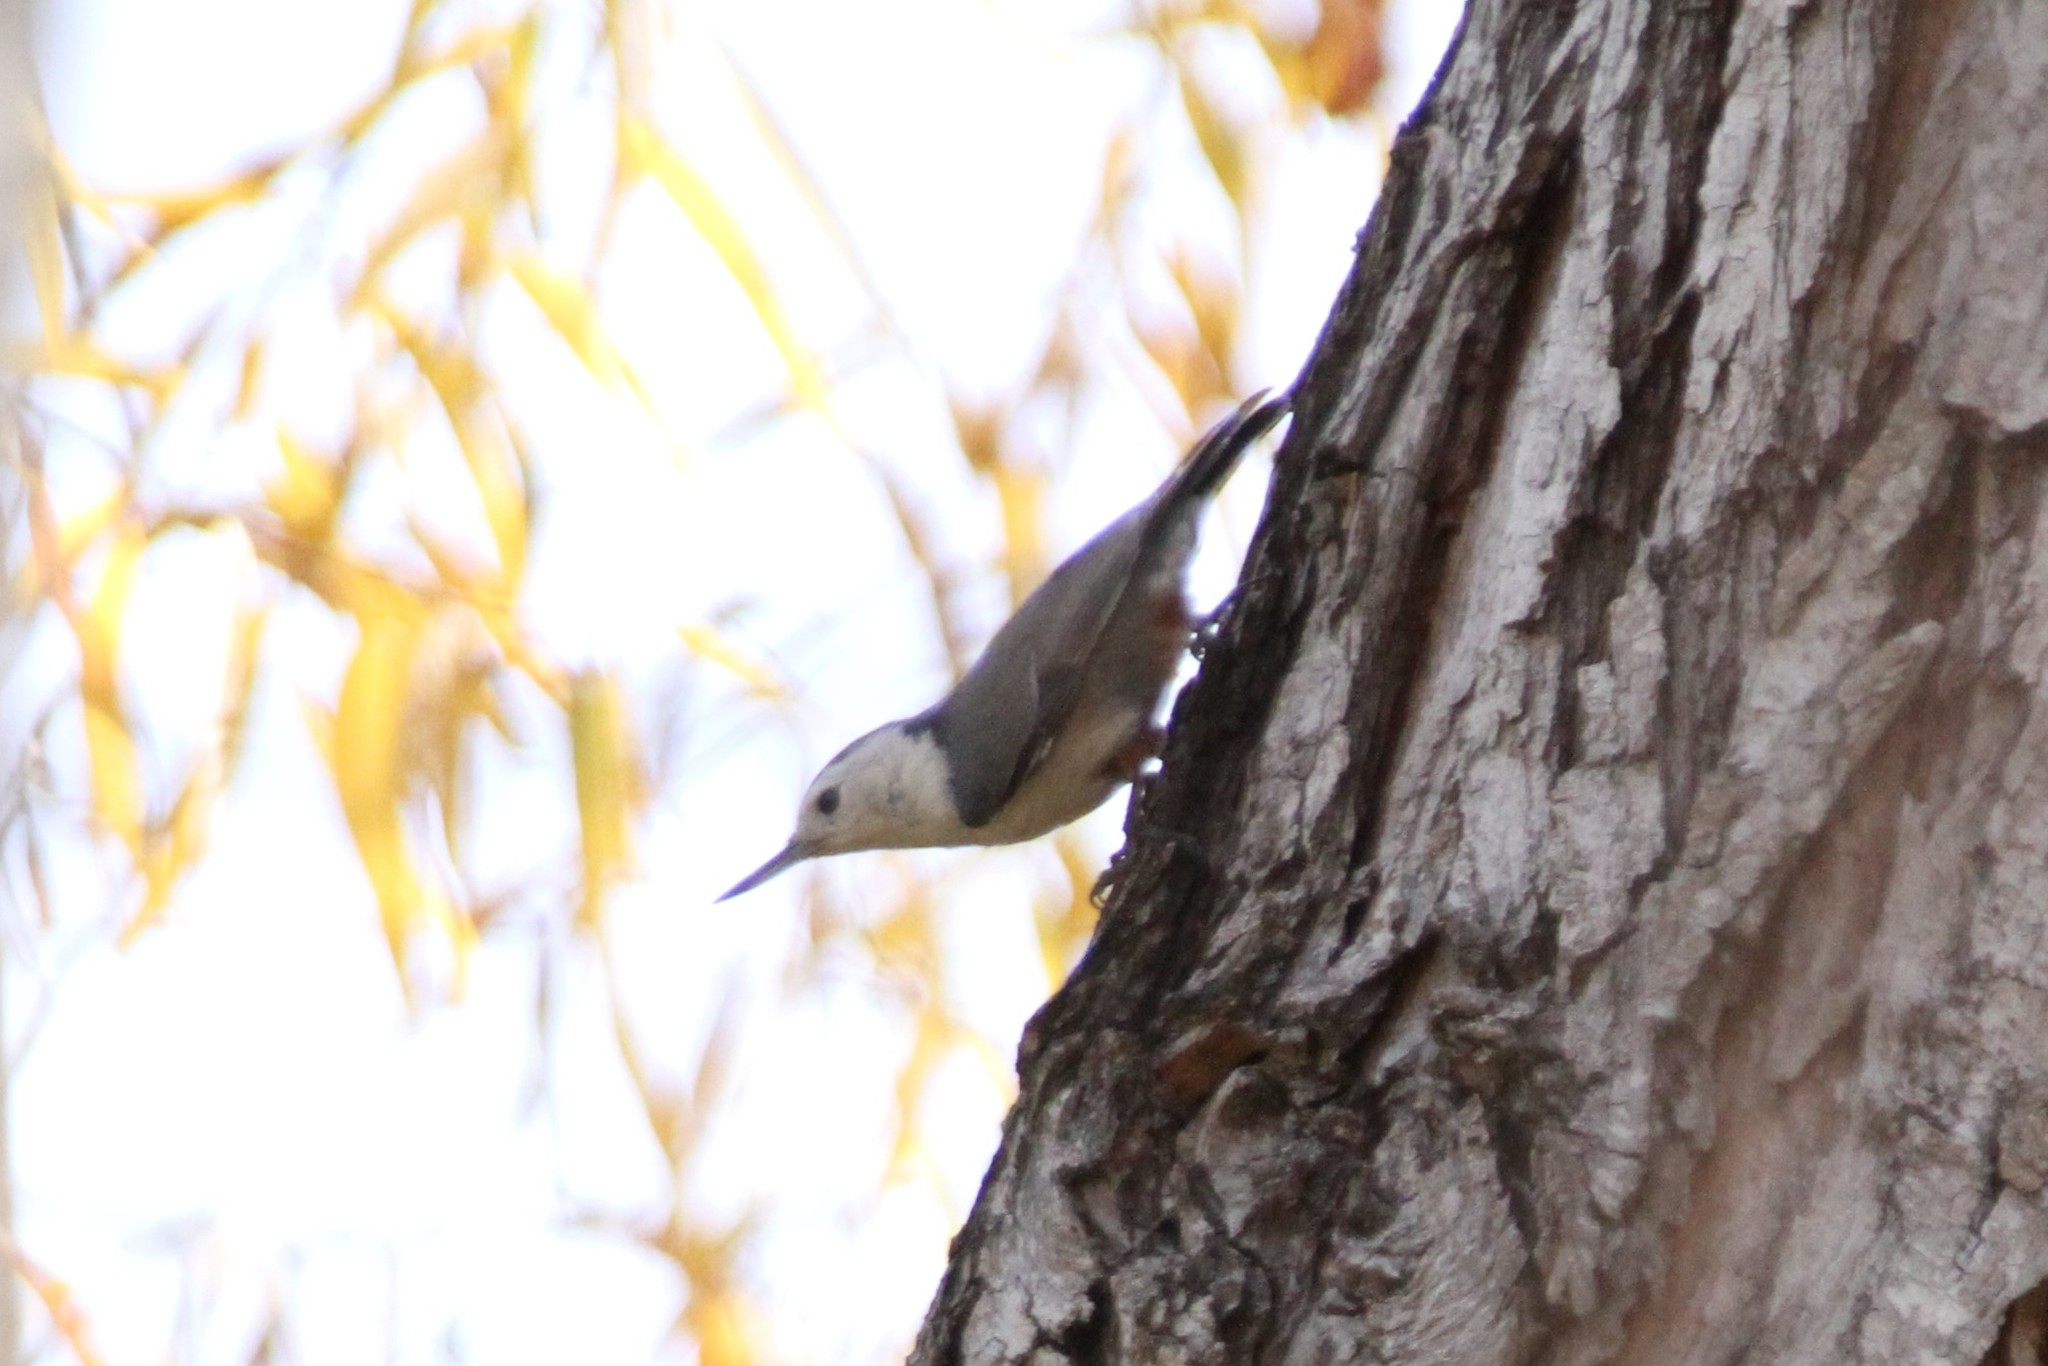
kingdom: Animalia
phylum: Chordata
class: Aves
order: Passeriformes
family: Sittidae
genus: Sitta
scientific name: Sitta carolinensis
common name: White-breasted nuthatch
